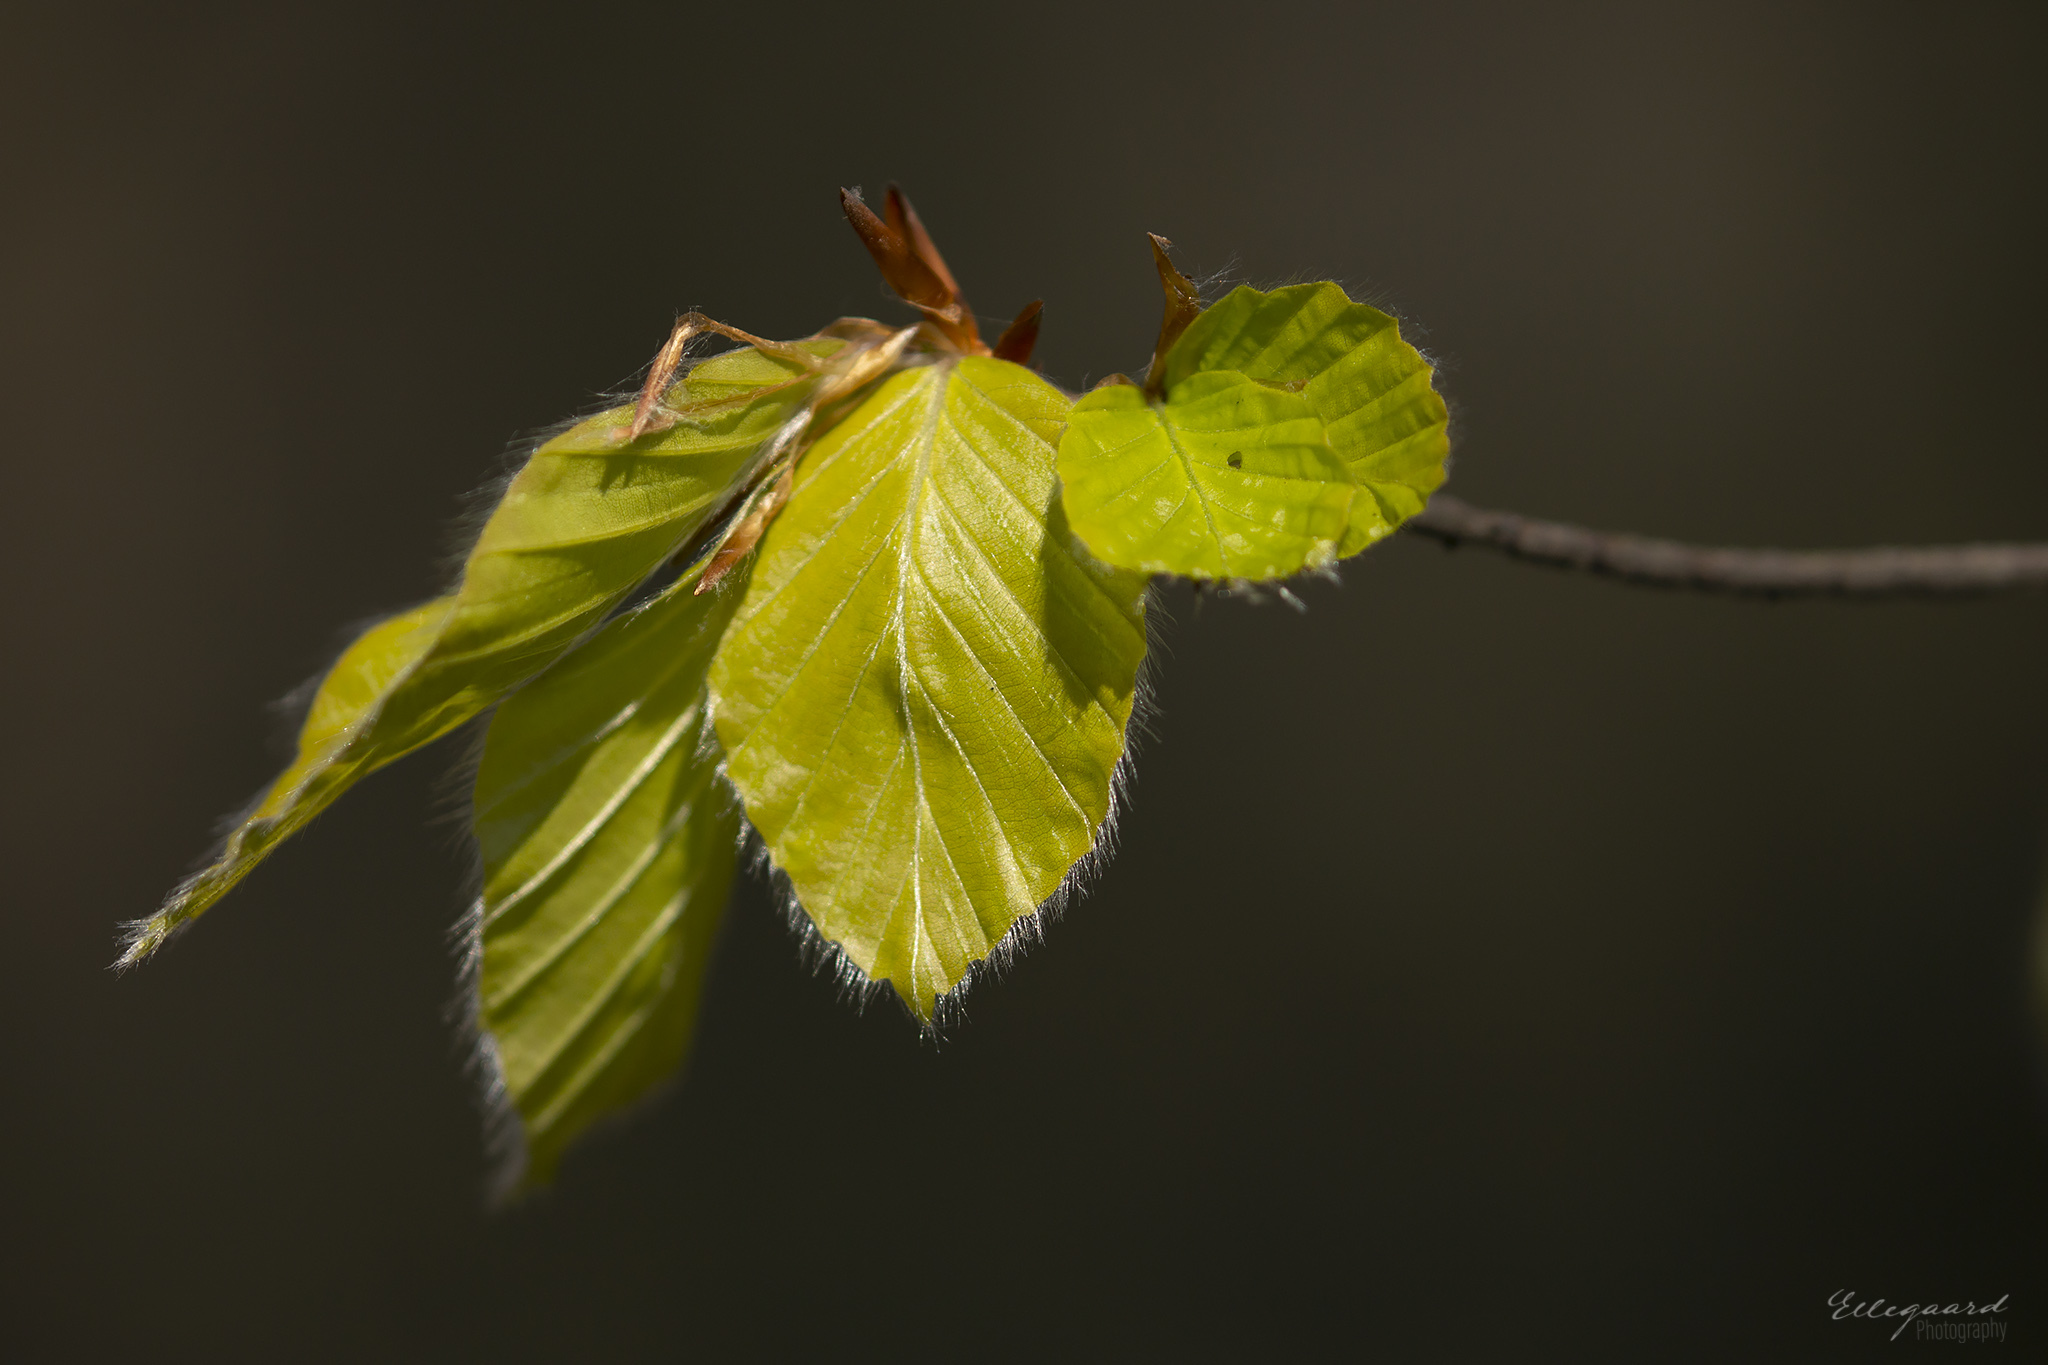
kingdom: Plantae
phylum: Tracheophyta
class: Magnoliopsida
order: Fagales
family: Fagaceae
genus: Fagus
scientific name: Fagus sylvatica
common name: Beech
